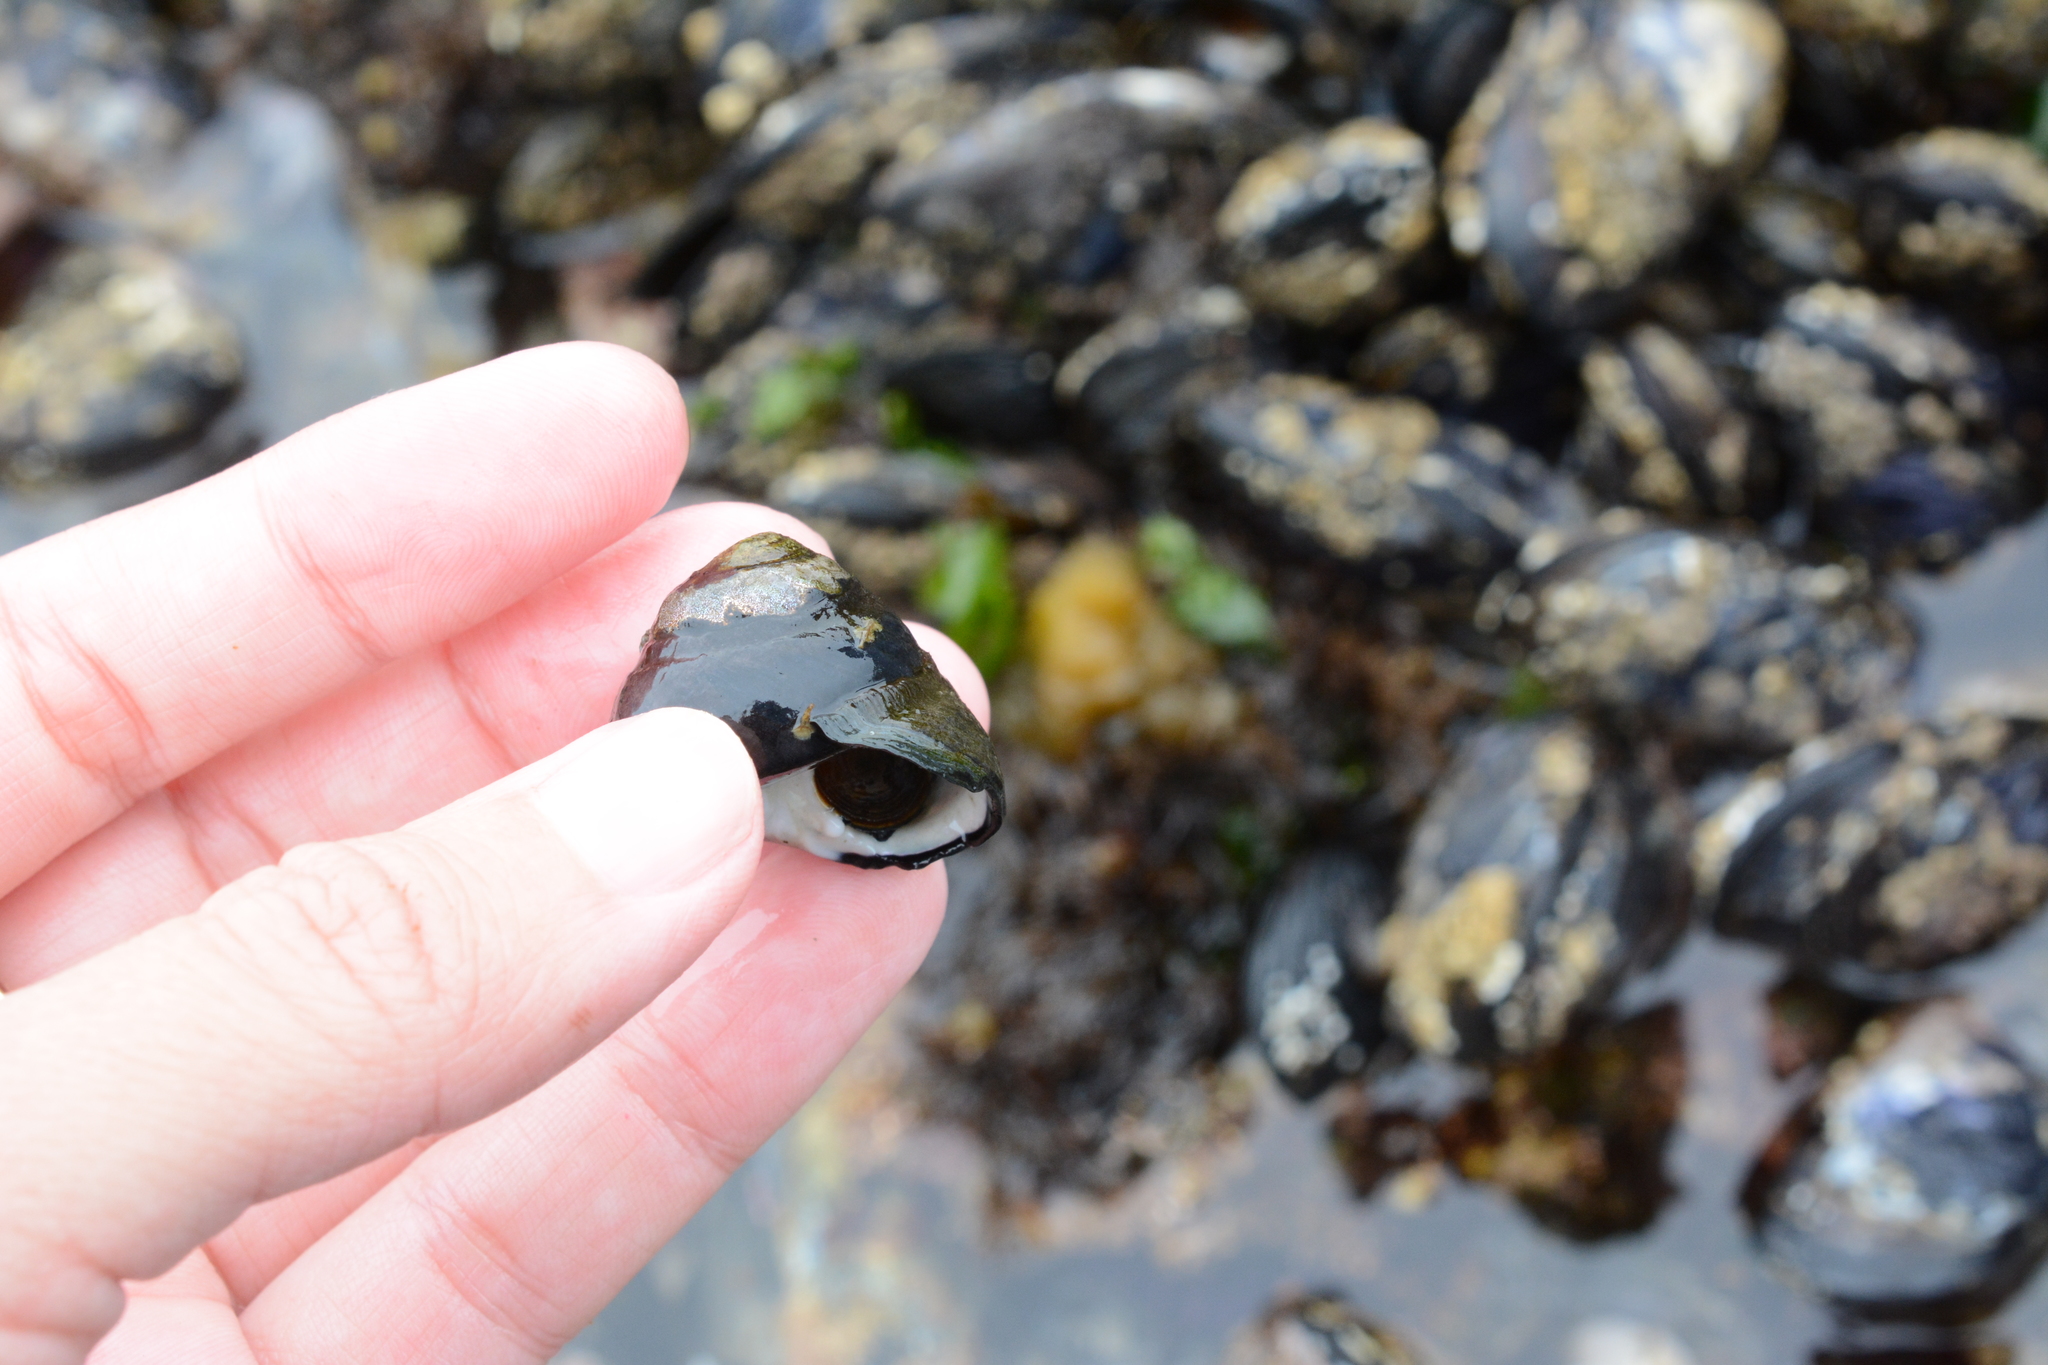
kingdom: Animalia
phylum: Mollusca
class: Gastropoda
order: Trochida
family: Tegulidae
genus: Tegula
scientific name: Tegula funebralis
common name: Black tegula
